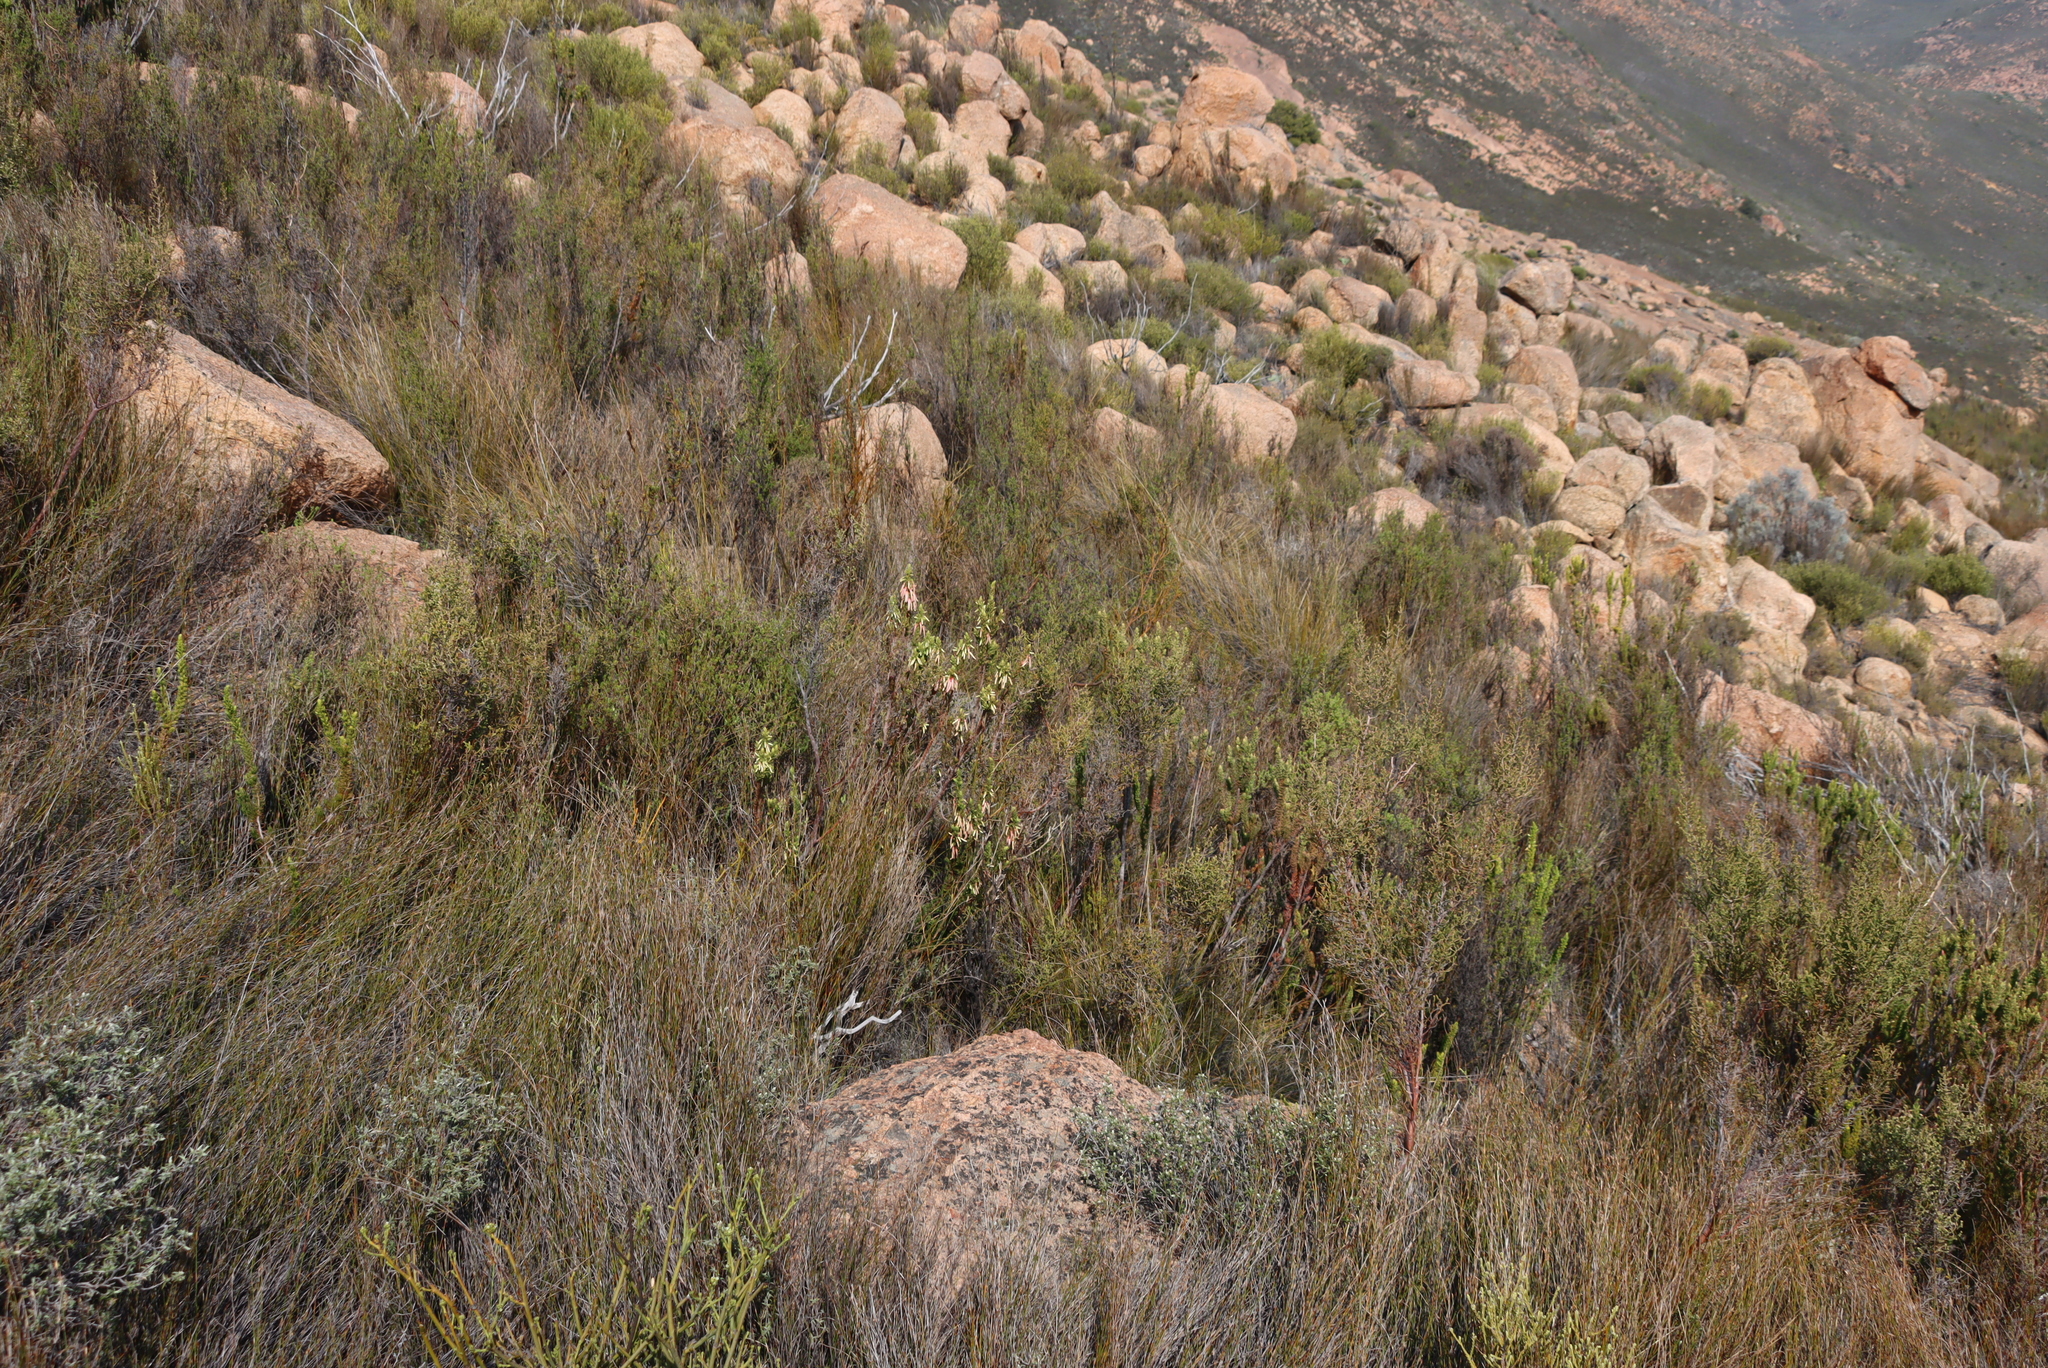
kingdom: Plantae
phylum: Tracheophyta
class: Magnoliopsida
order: Ericales
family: Ericaceae
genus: Erica
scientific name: Erica plukenetii
